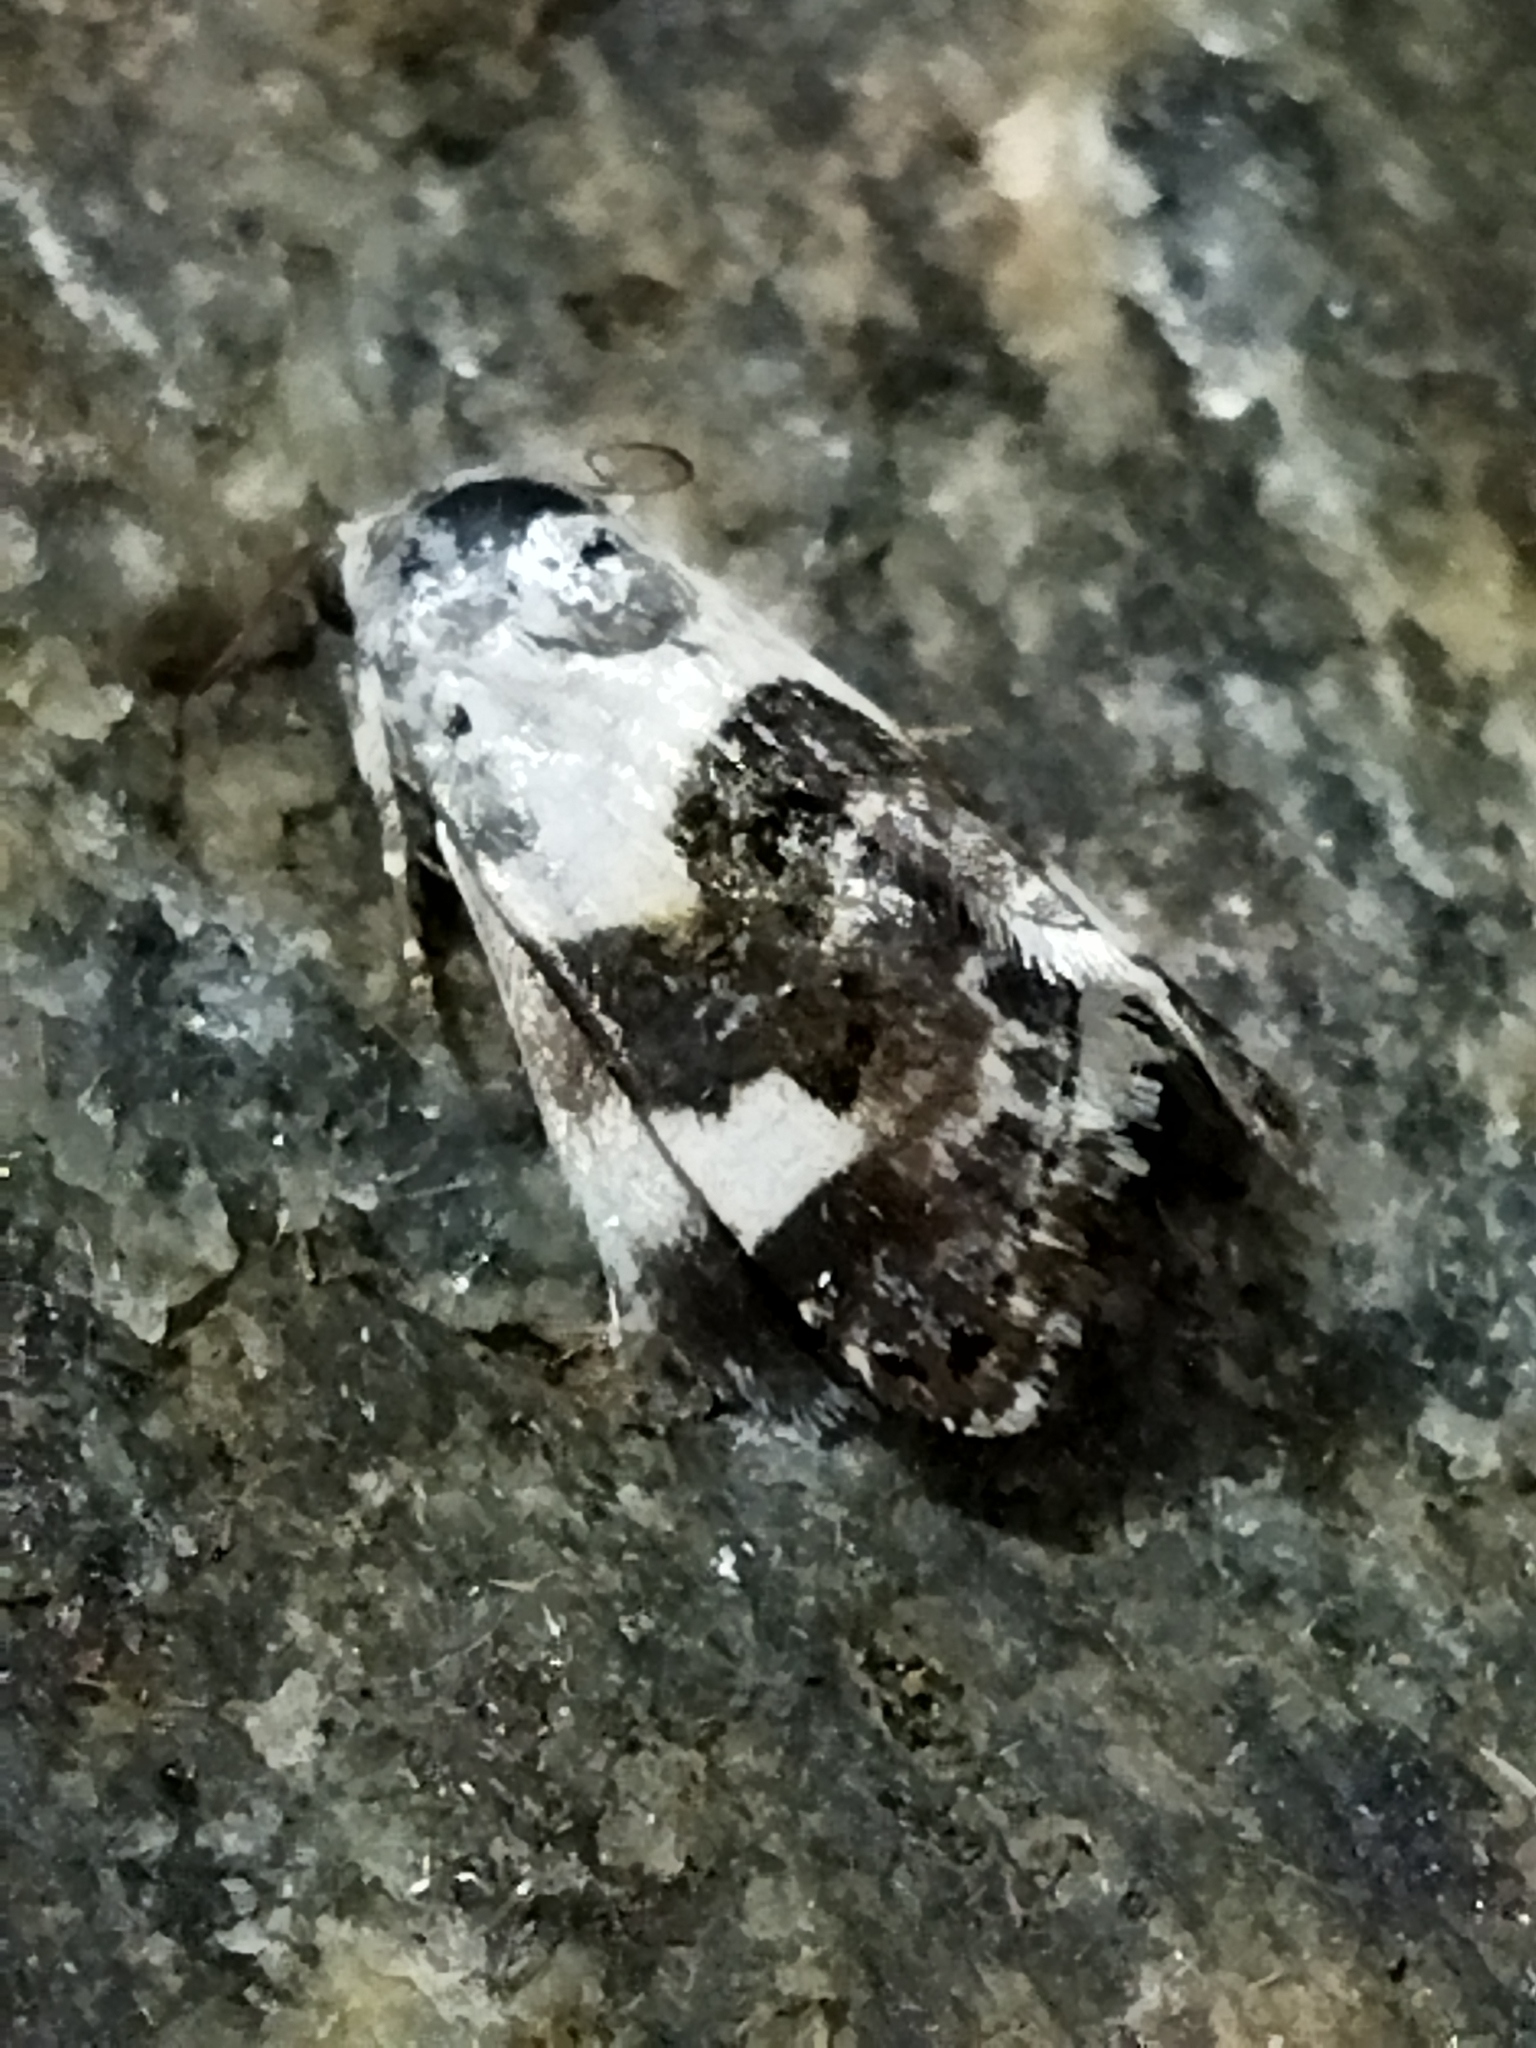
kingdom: Animalia
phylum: Arthropoda
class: Insecta
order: Lepidoptera
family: Noctuidae
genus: Acontia
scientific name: Acontia lucida
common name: Pale shoulder
